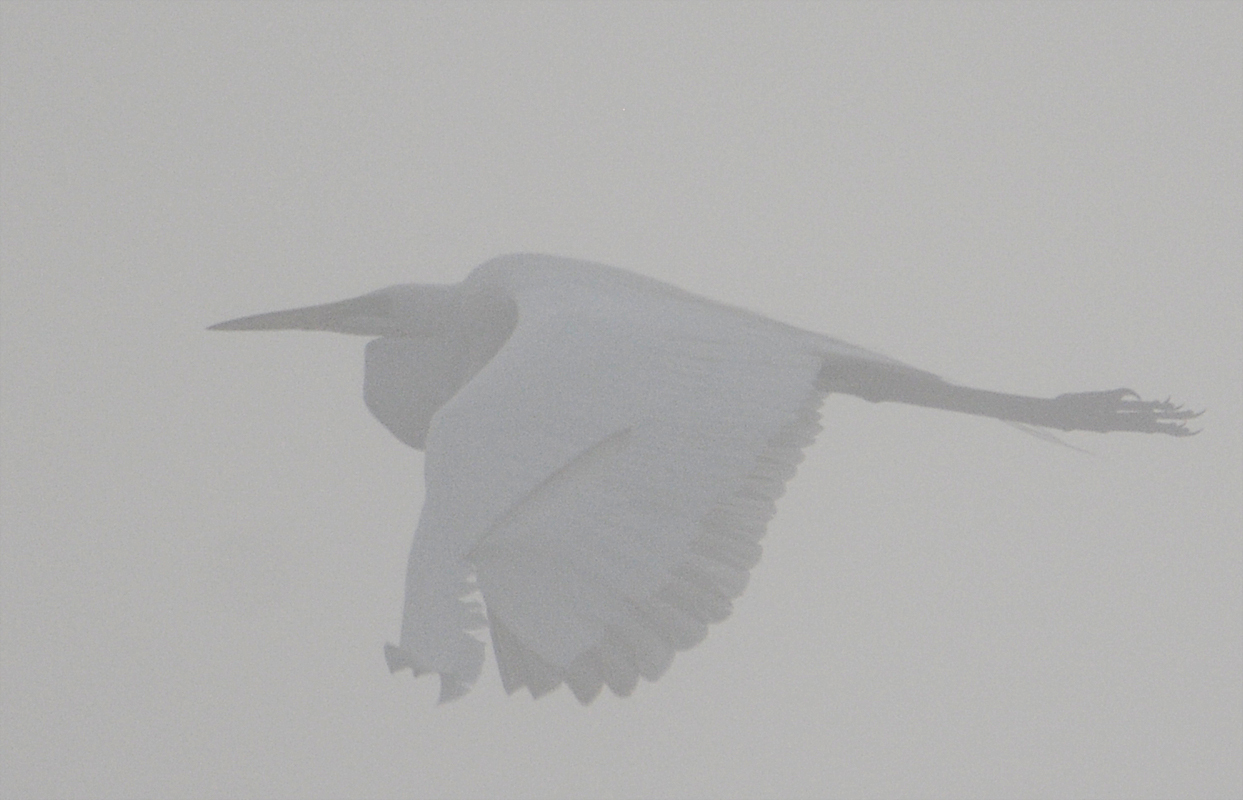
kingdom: Animalia
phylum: Chordata
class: Aves
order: Pelecaniformes
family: Ardeidae
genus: Ardea
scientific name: Ardea alba
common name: Great egret
